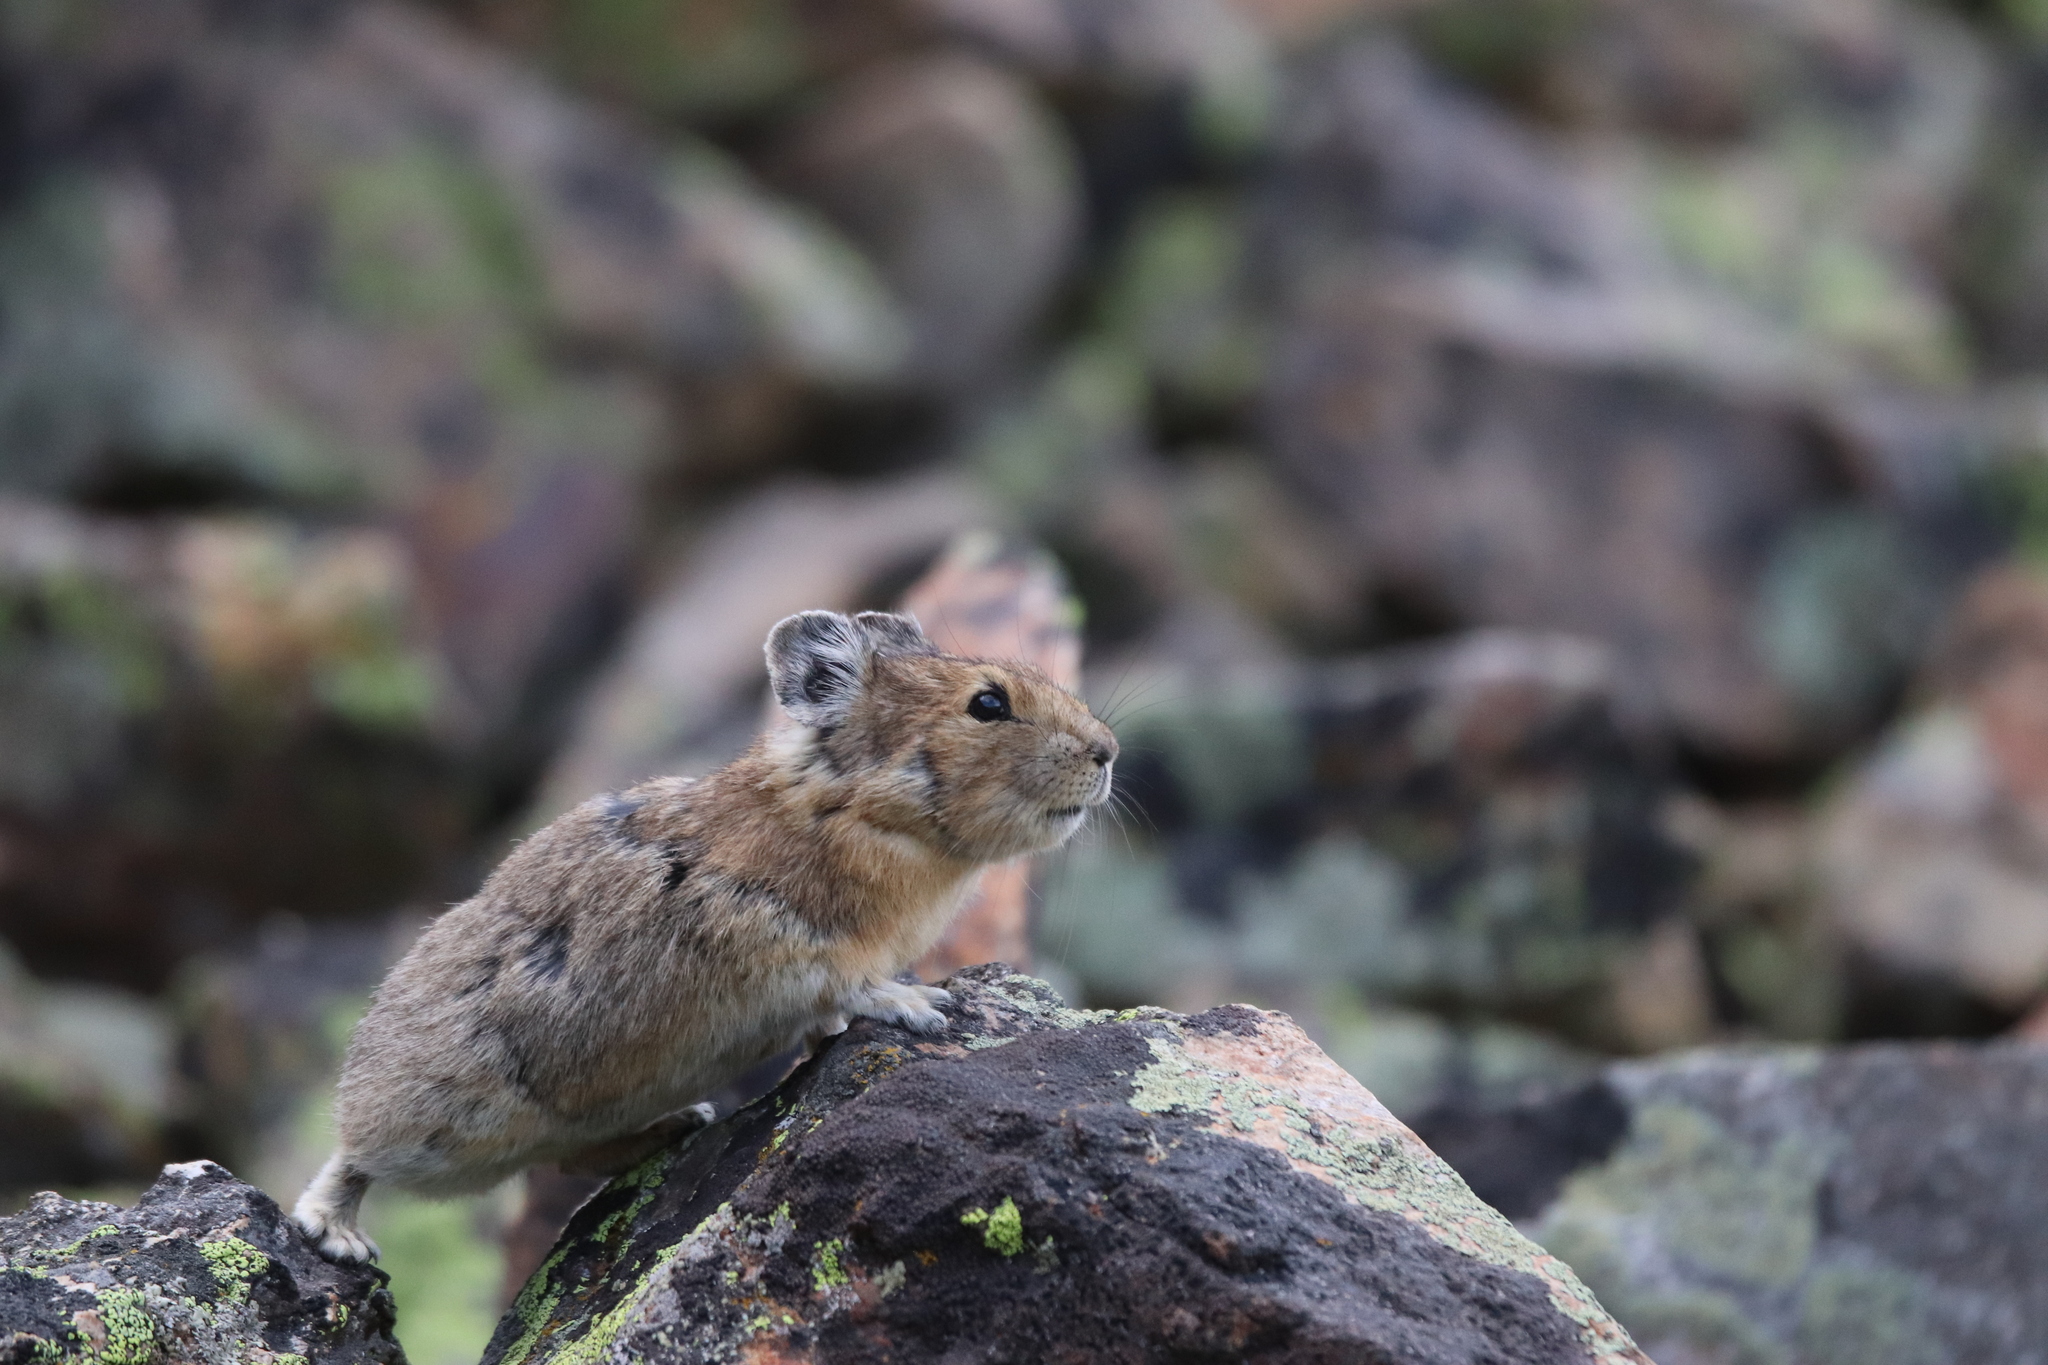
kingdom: Animalia
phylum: Chordata
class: Mammalia
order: Lagomorpha
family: Ochotonidae
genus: Ochotona
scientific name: Ochotona princeps
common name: American pika
